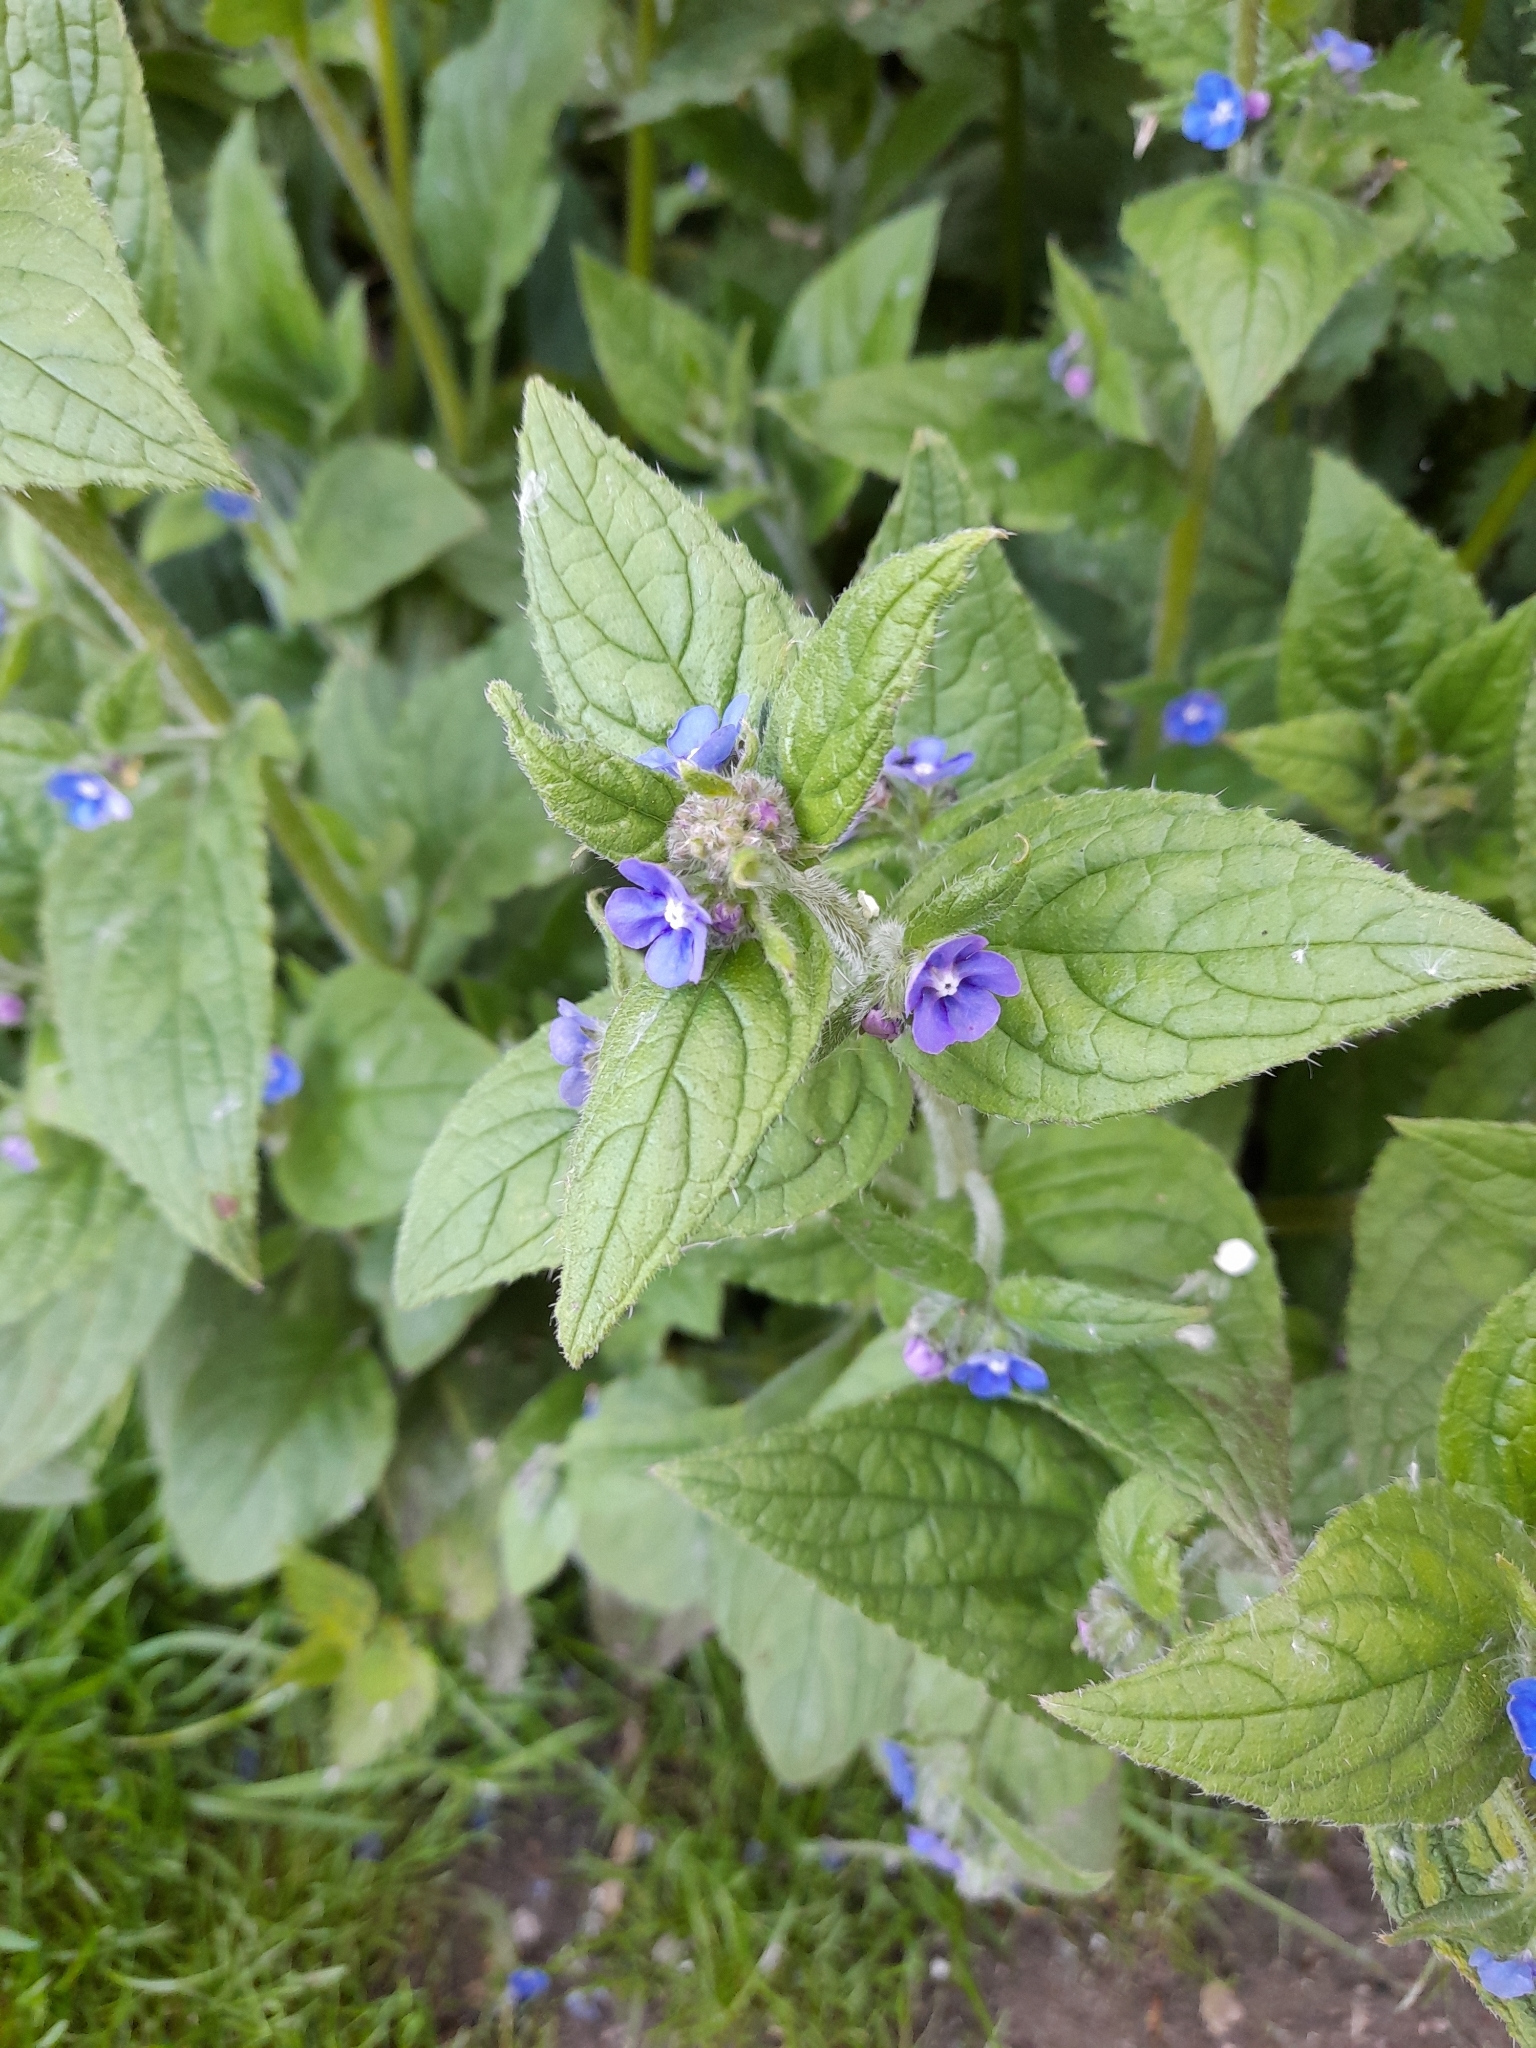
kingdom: Plantae
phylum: Tracheophyta
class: Magnoliopsida
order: Boraginales
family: Boraginaceae
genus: Pentaglottis
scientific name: Pentaglottis sempervirens
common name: Green alkanet
